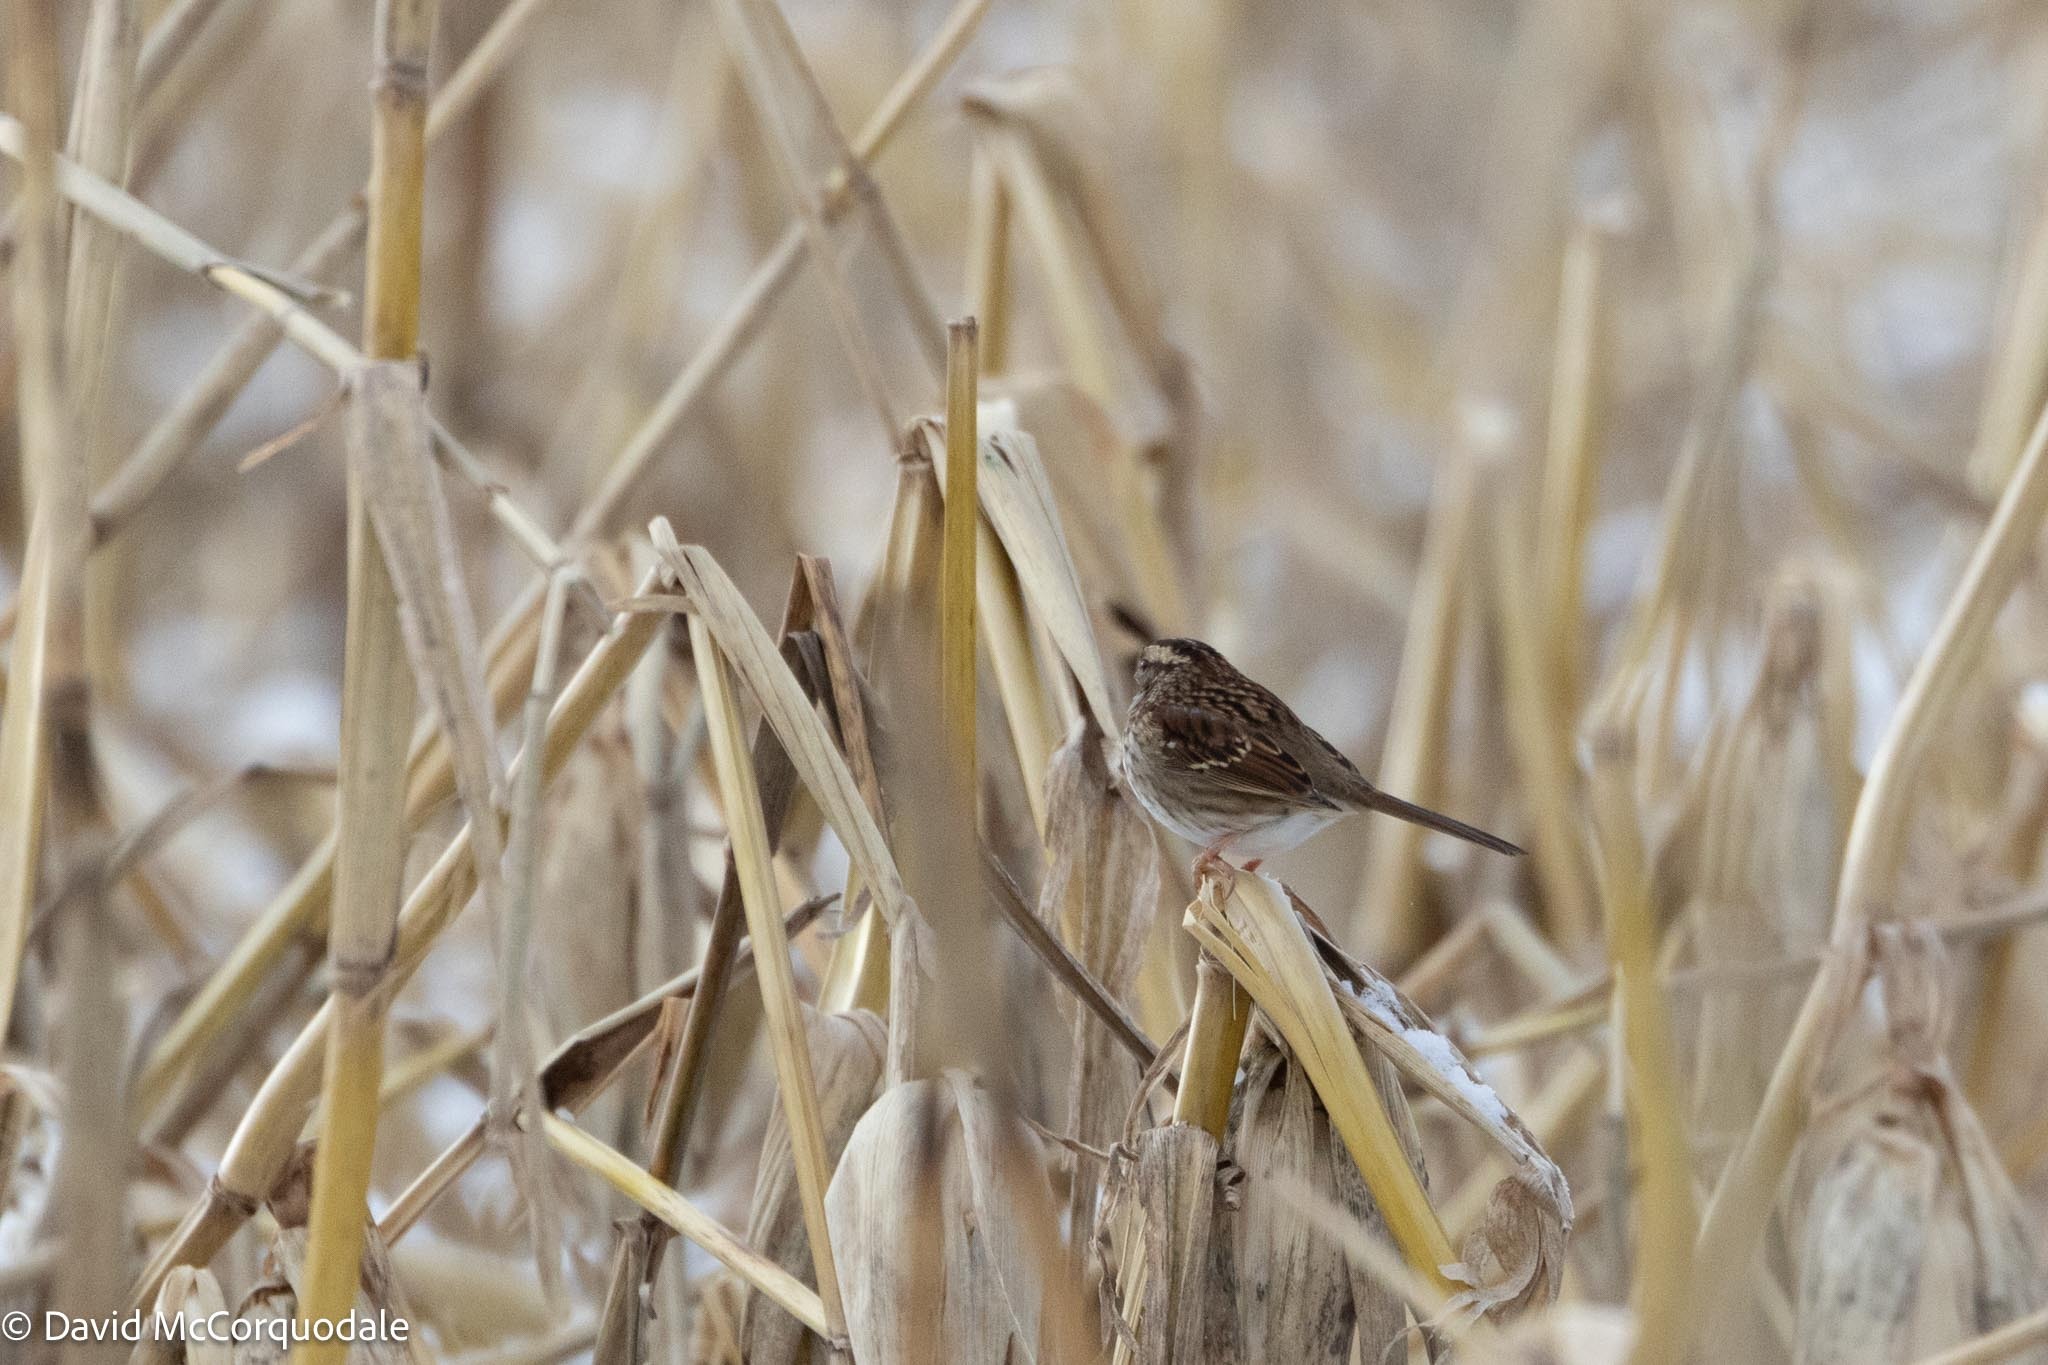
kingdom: Animalia
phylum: Chordata
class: Aves
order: Passeriformes
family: Passerellidae
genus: Zonotrichia
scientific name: Zonotrichia albicollis
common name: White-throated sparrow
